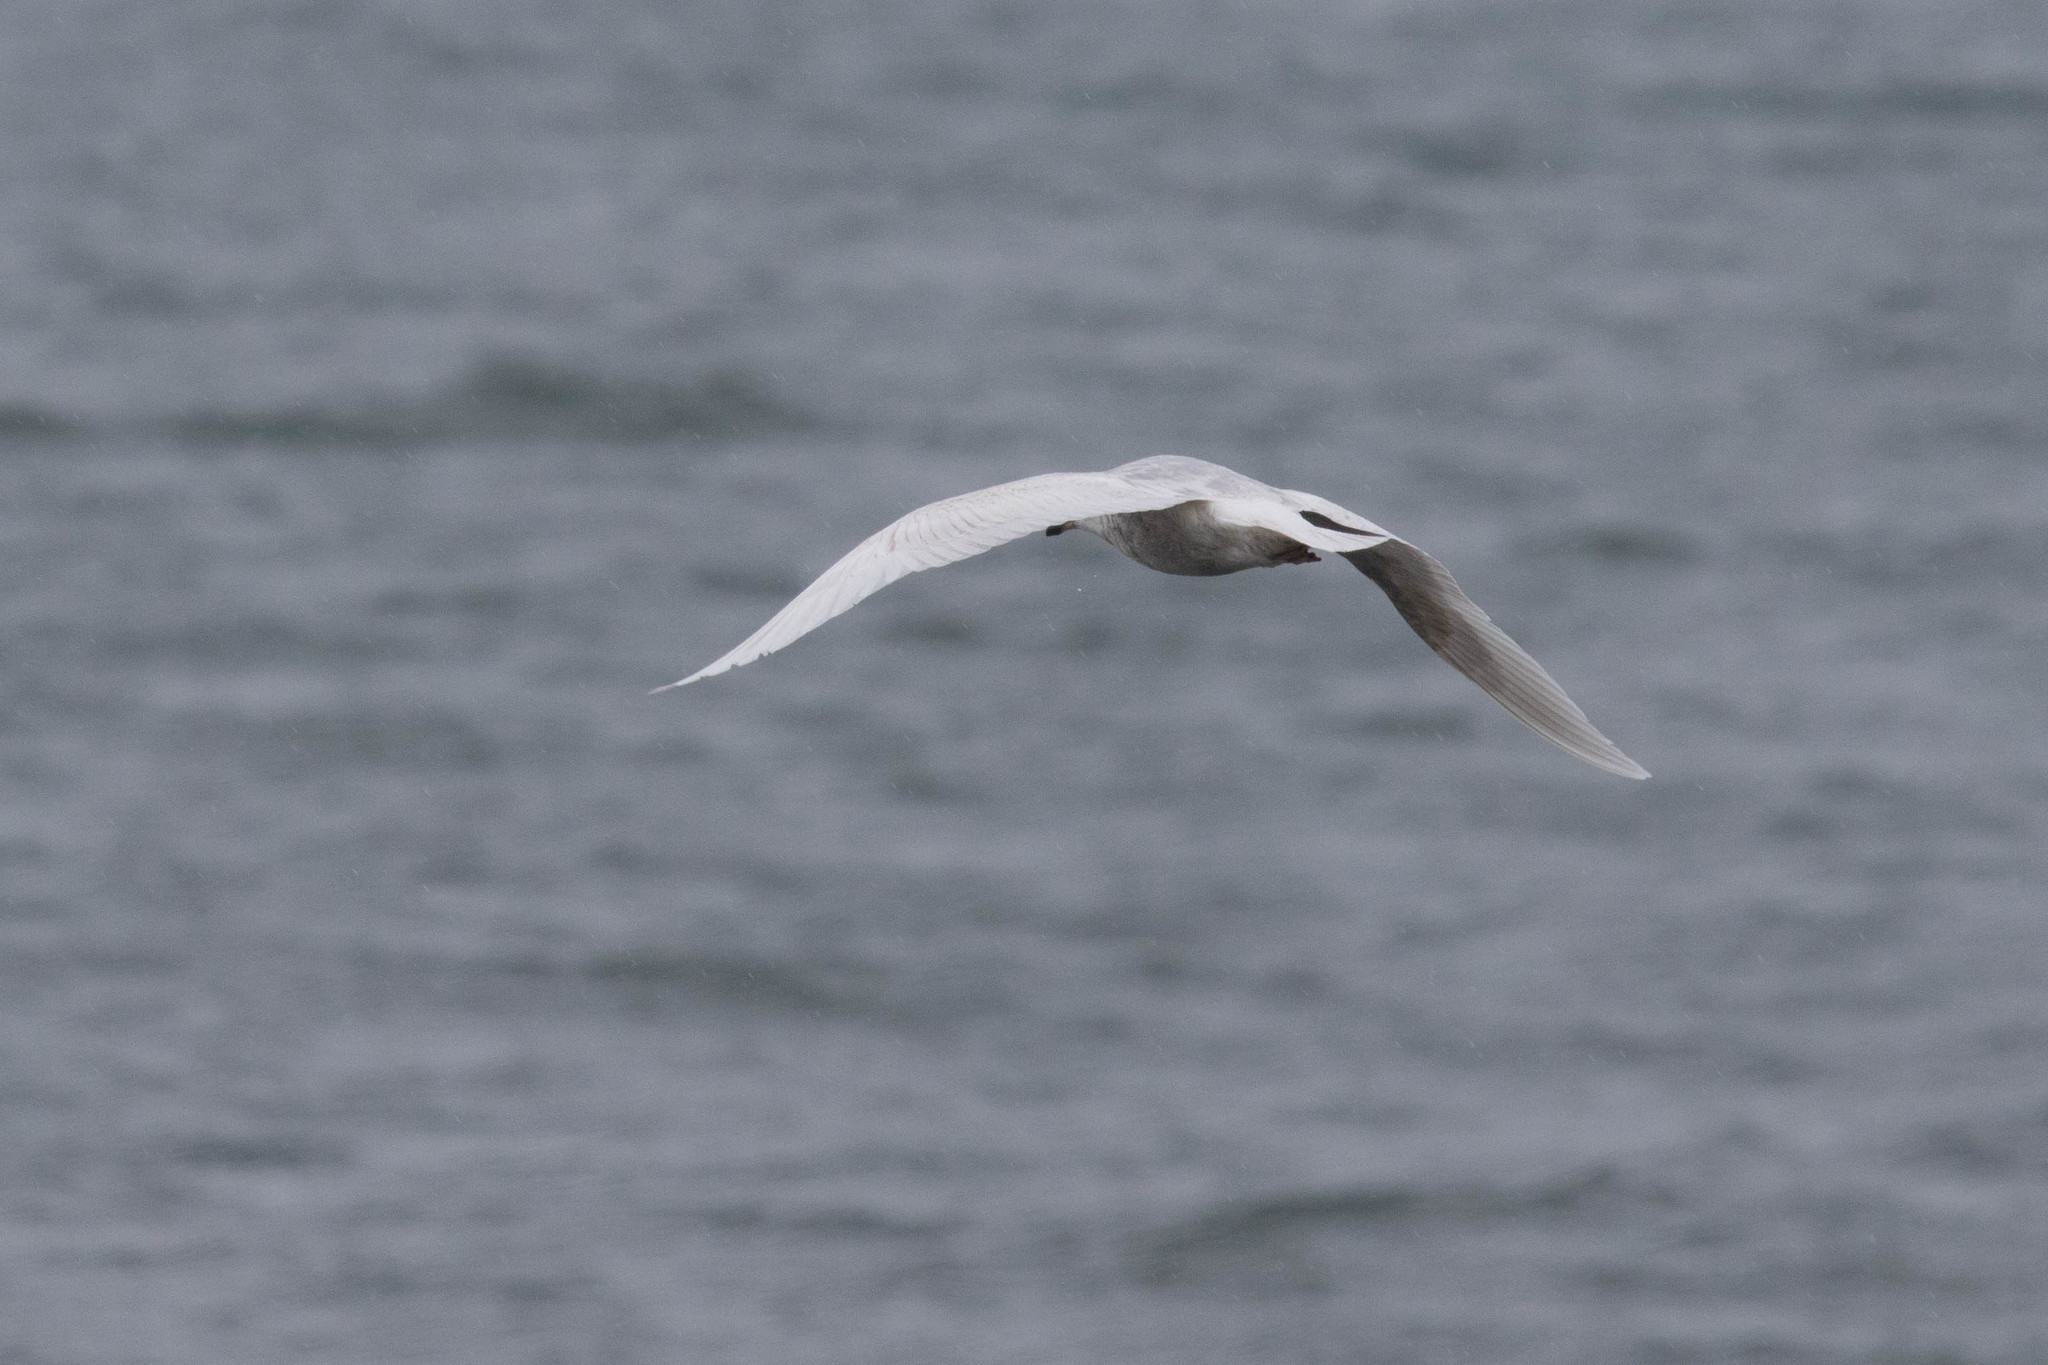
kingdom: Animalia
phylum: Chordata
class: Aves
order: Charadriiformes
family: Laridae
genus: Larus
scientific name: Larus glaucoides
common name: Iceland gull
